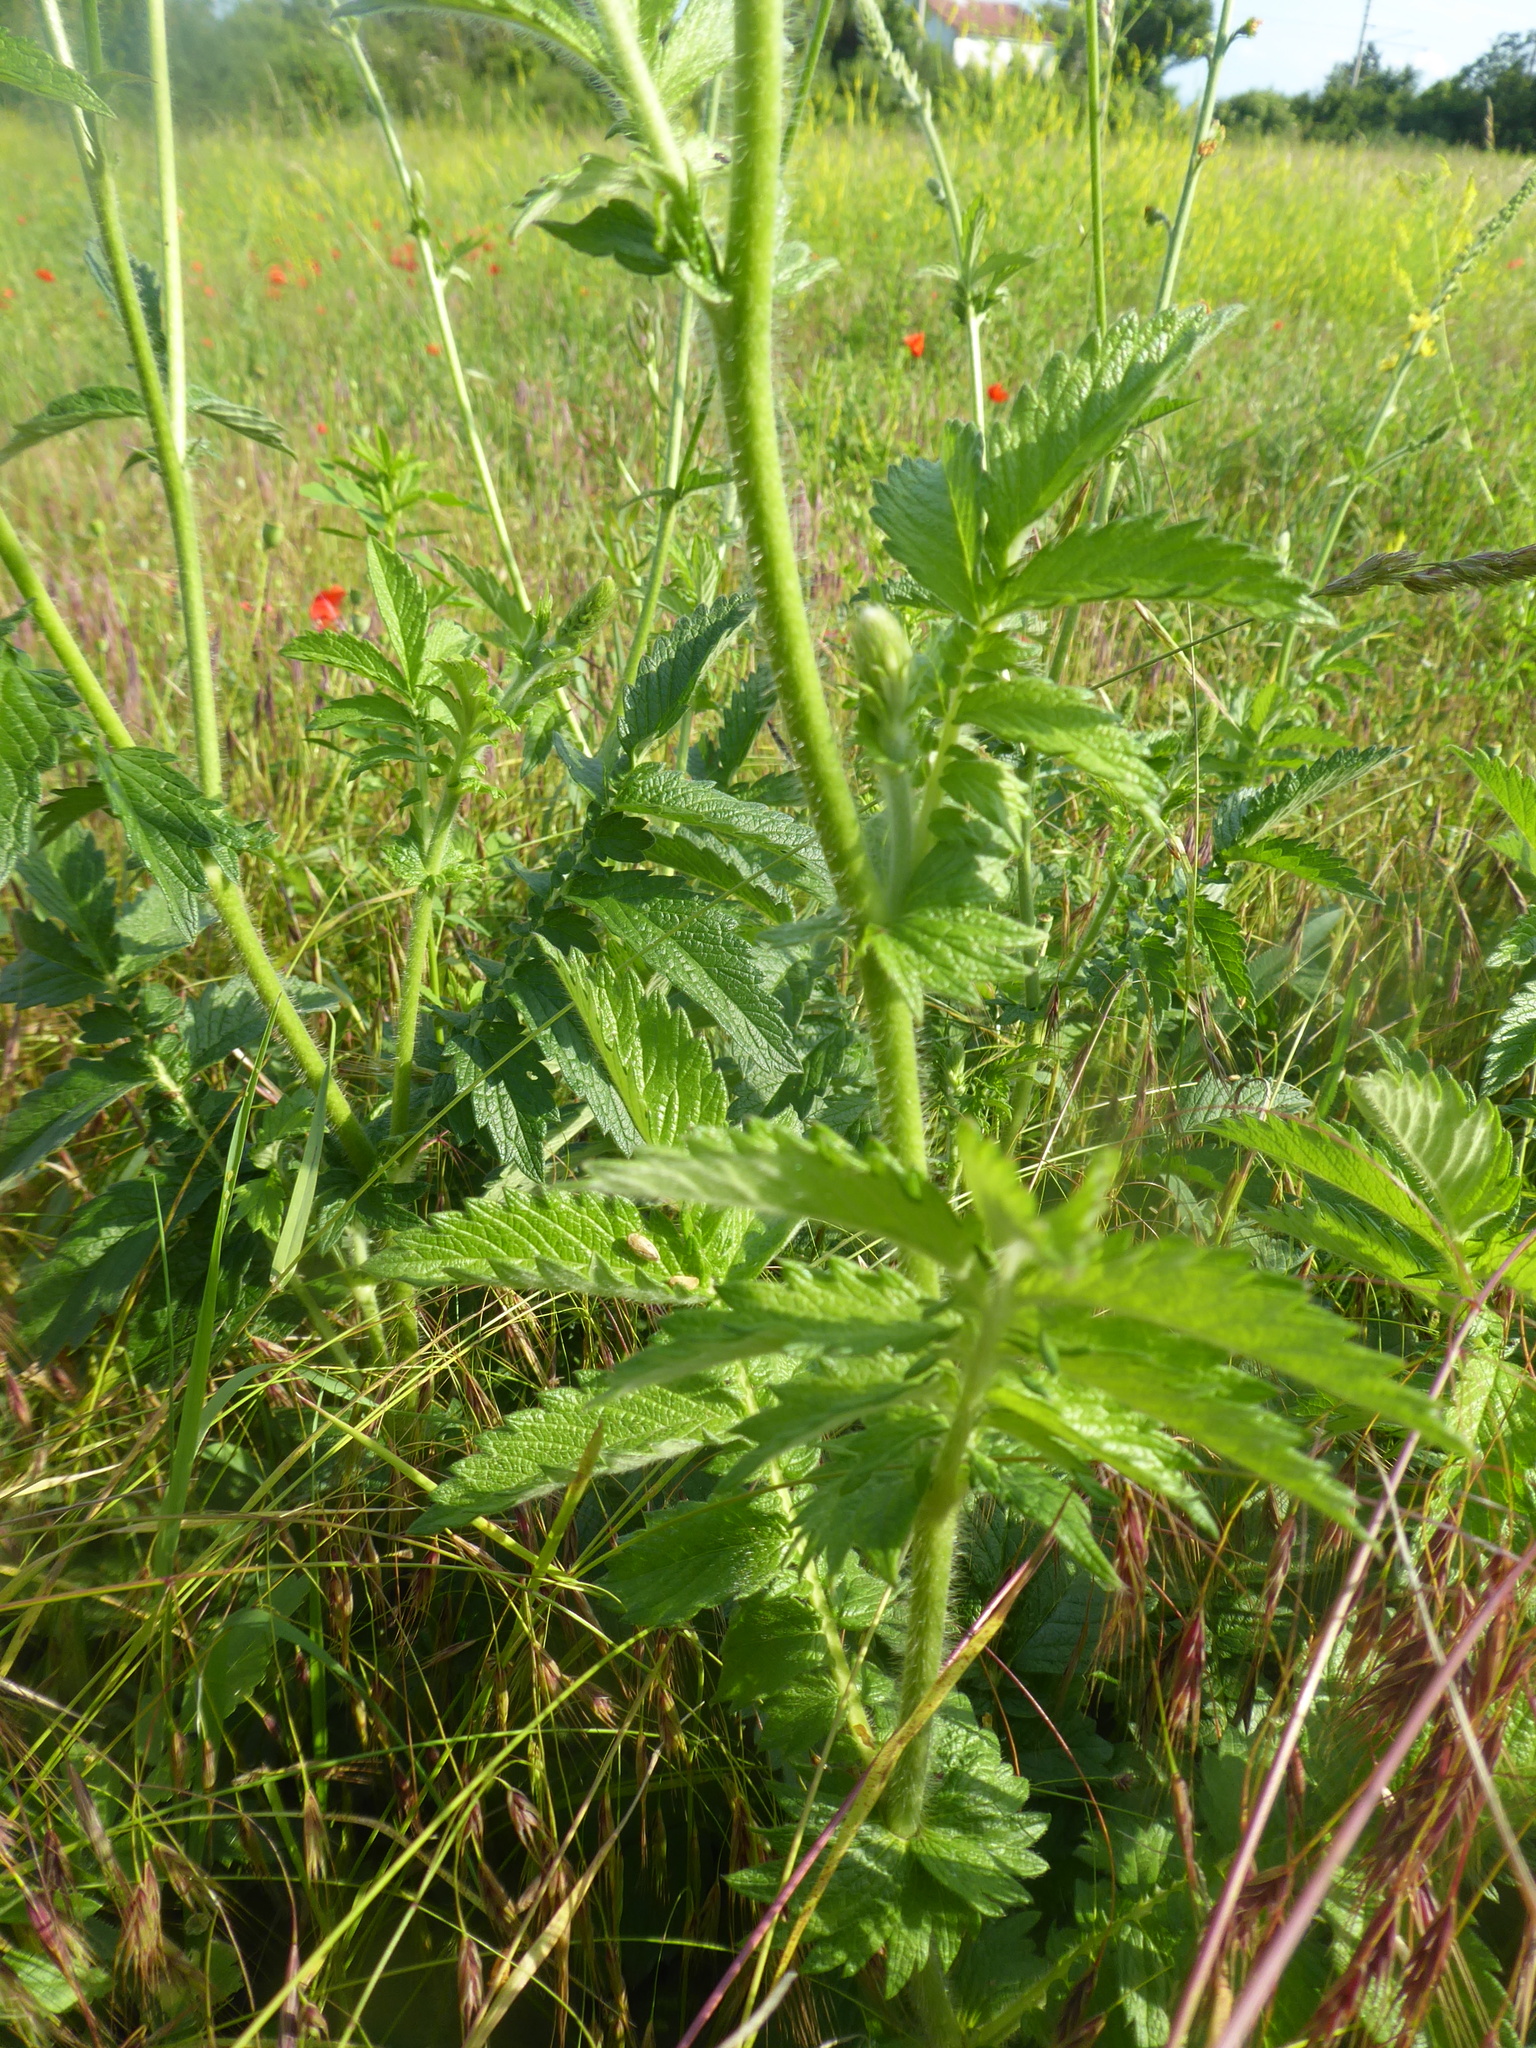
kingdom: Plantae
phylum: Tracheophyta
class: Magnoliopsida
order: Rosales
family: Rosaceae
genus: Agrimonia
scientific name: Agrimonia eupatoria
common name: Agrimony
